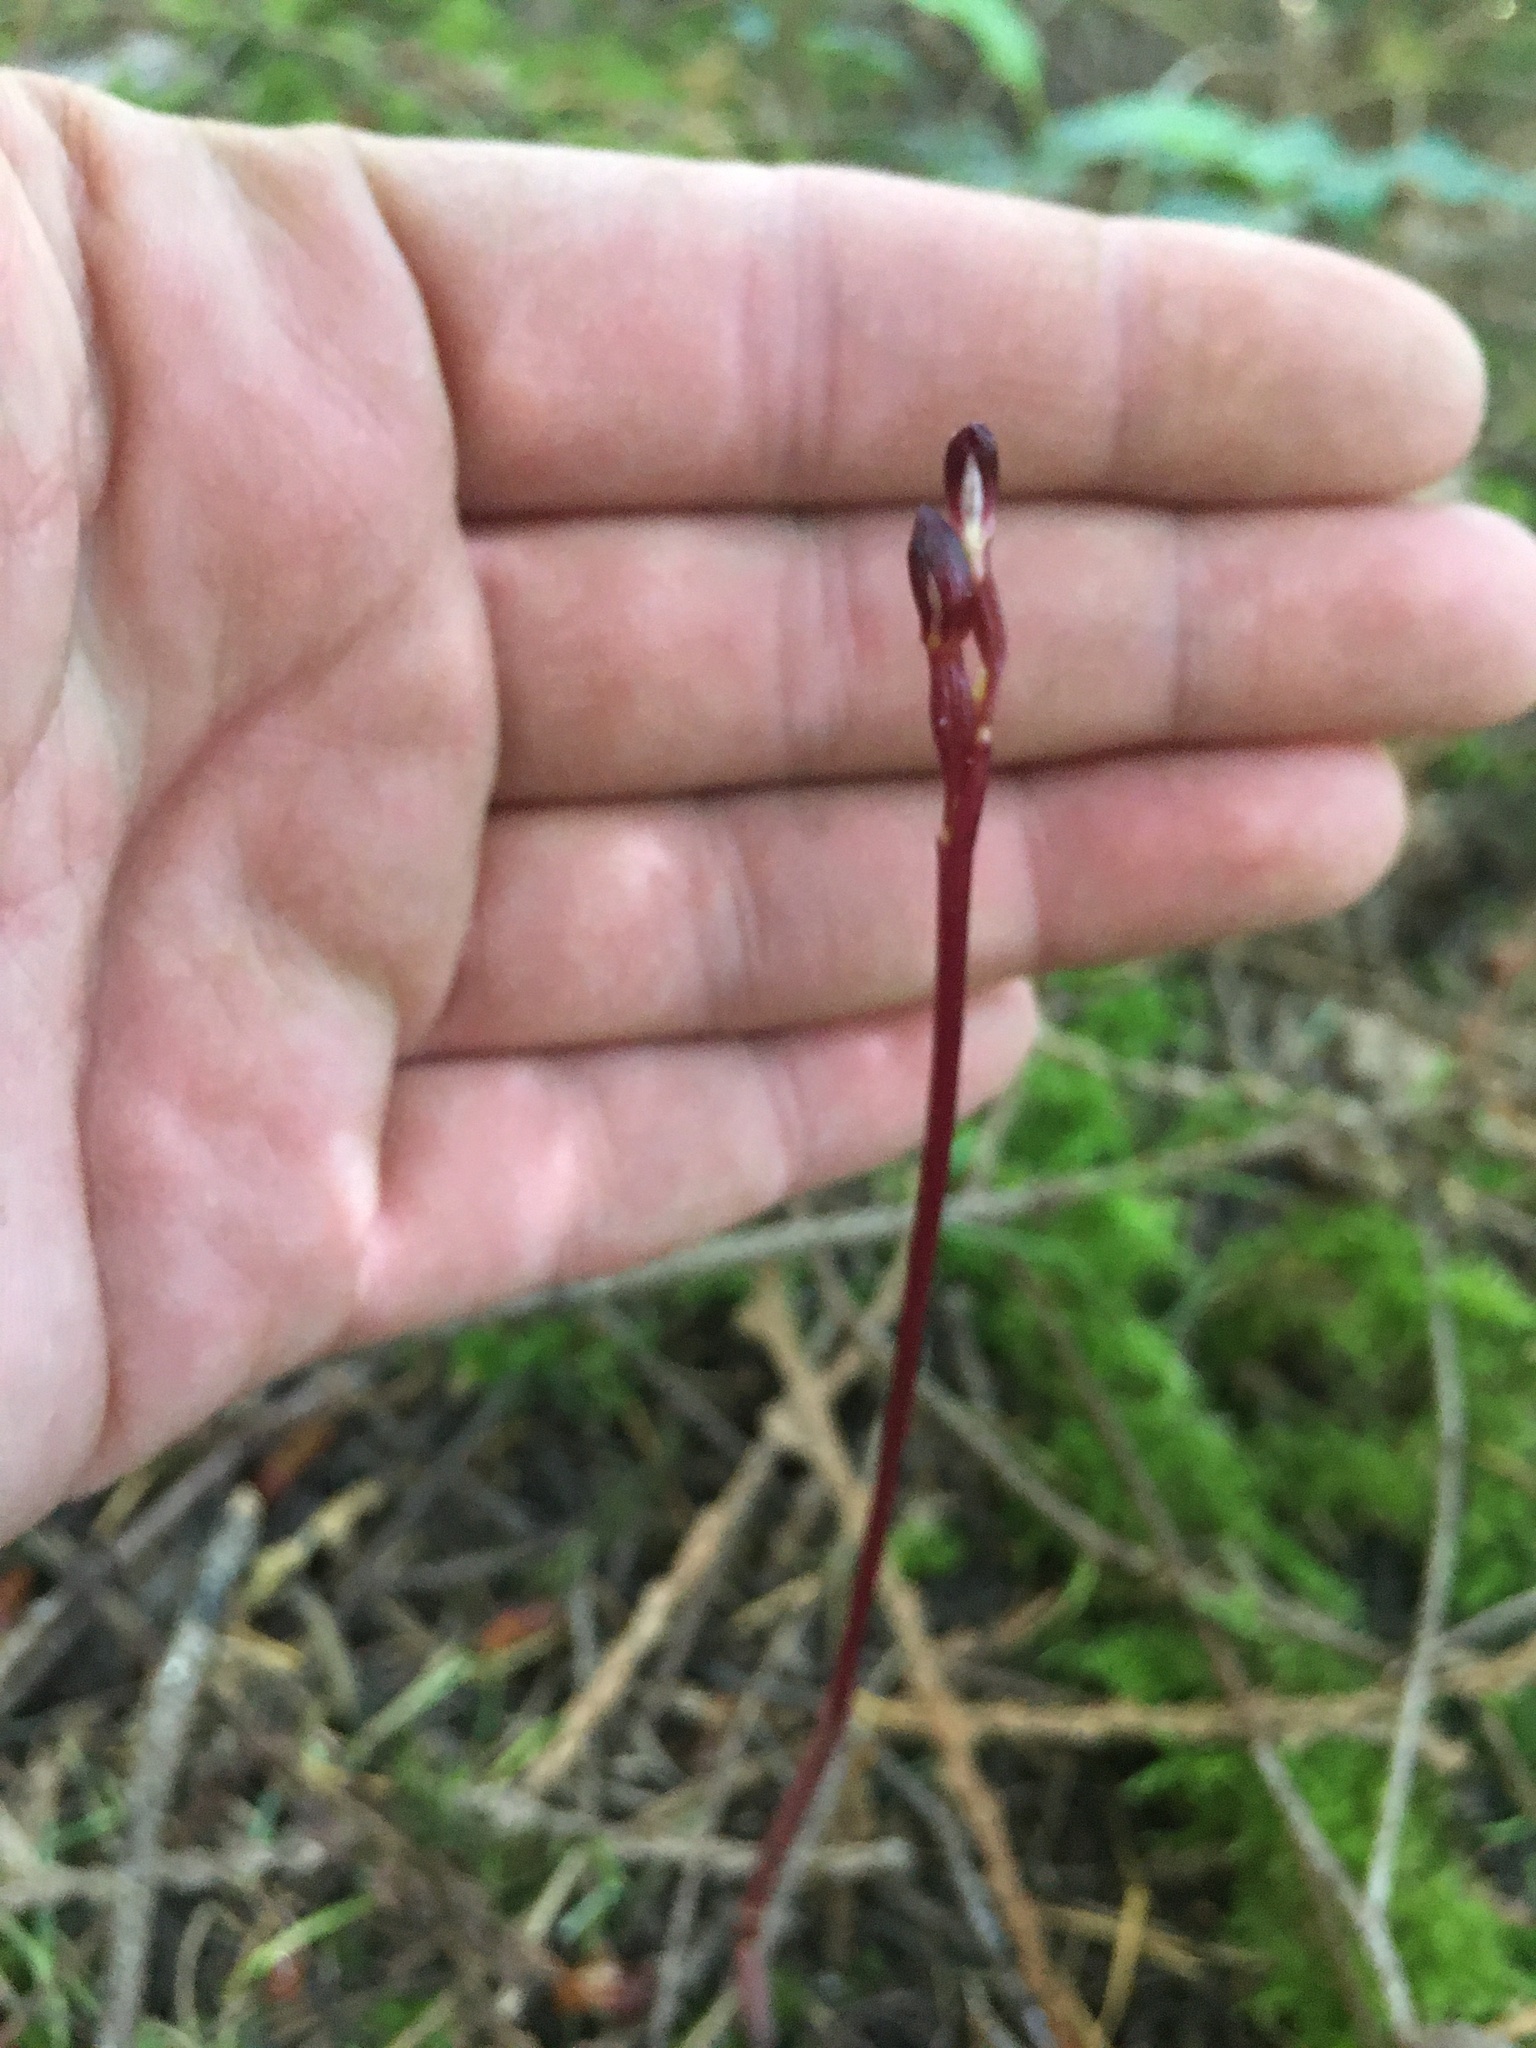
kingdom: Plantae
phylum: Tracheophyta
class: Liliopsida
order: Asparagales
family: Orchidaceae
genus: Corallorhiza
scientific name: Corallorhiza maculata
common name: Spotted coralroot
